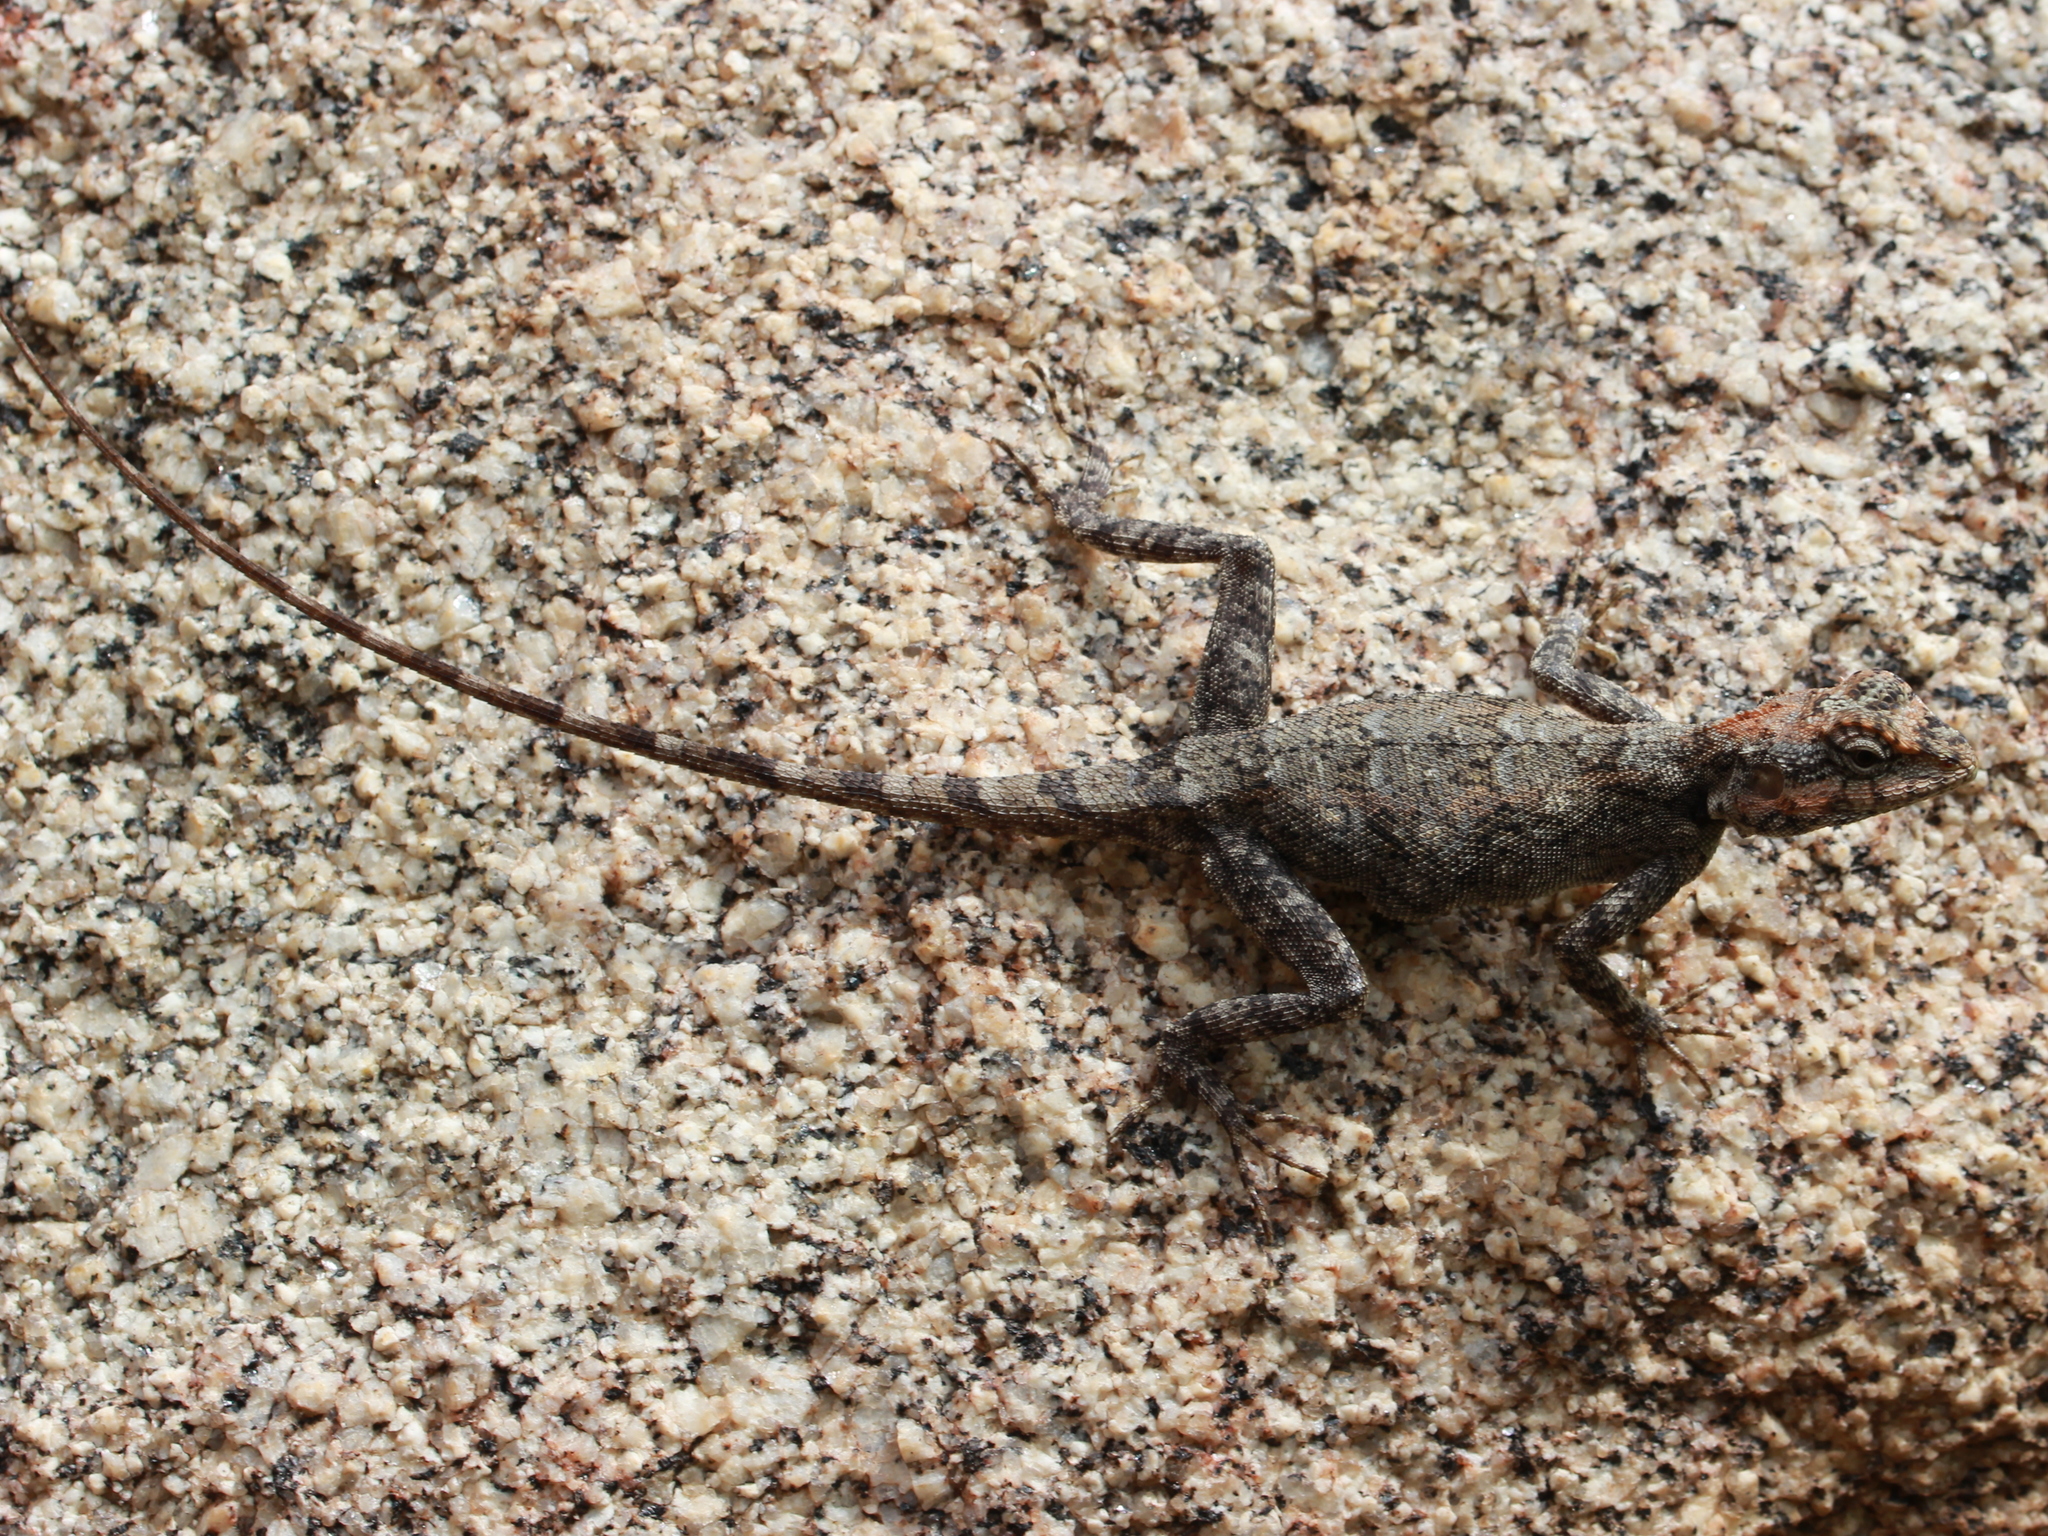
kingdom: Animalia
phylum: Chordata
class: Squamata
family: Agamidae
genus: Psammophilus
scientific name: Psammophilus dorsalis
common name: South indian rock agama
